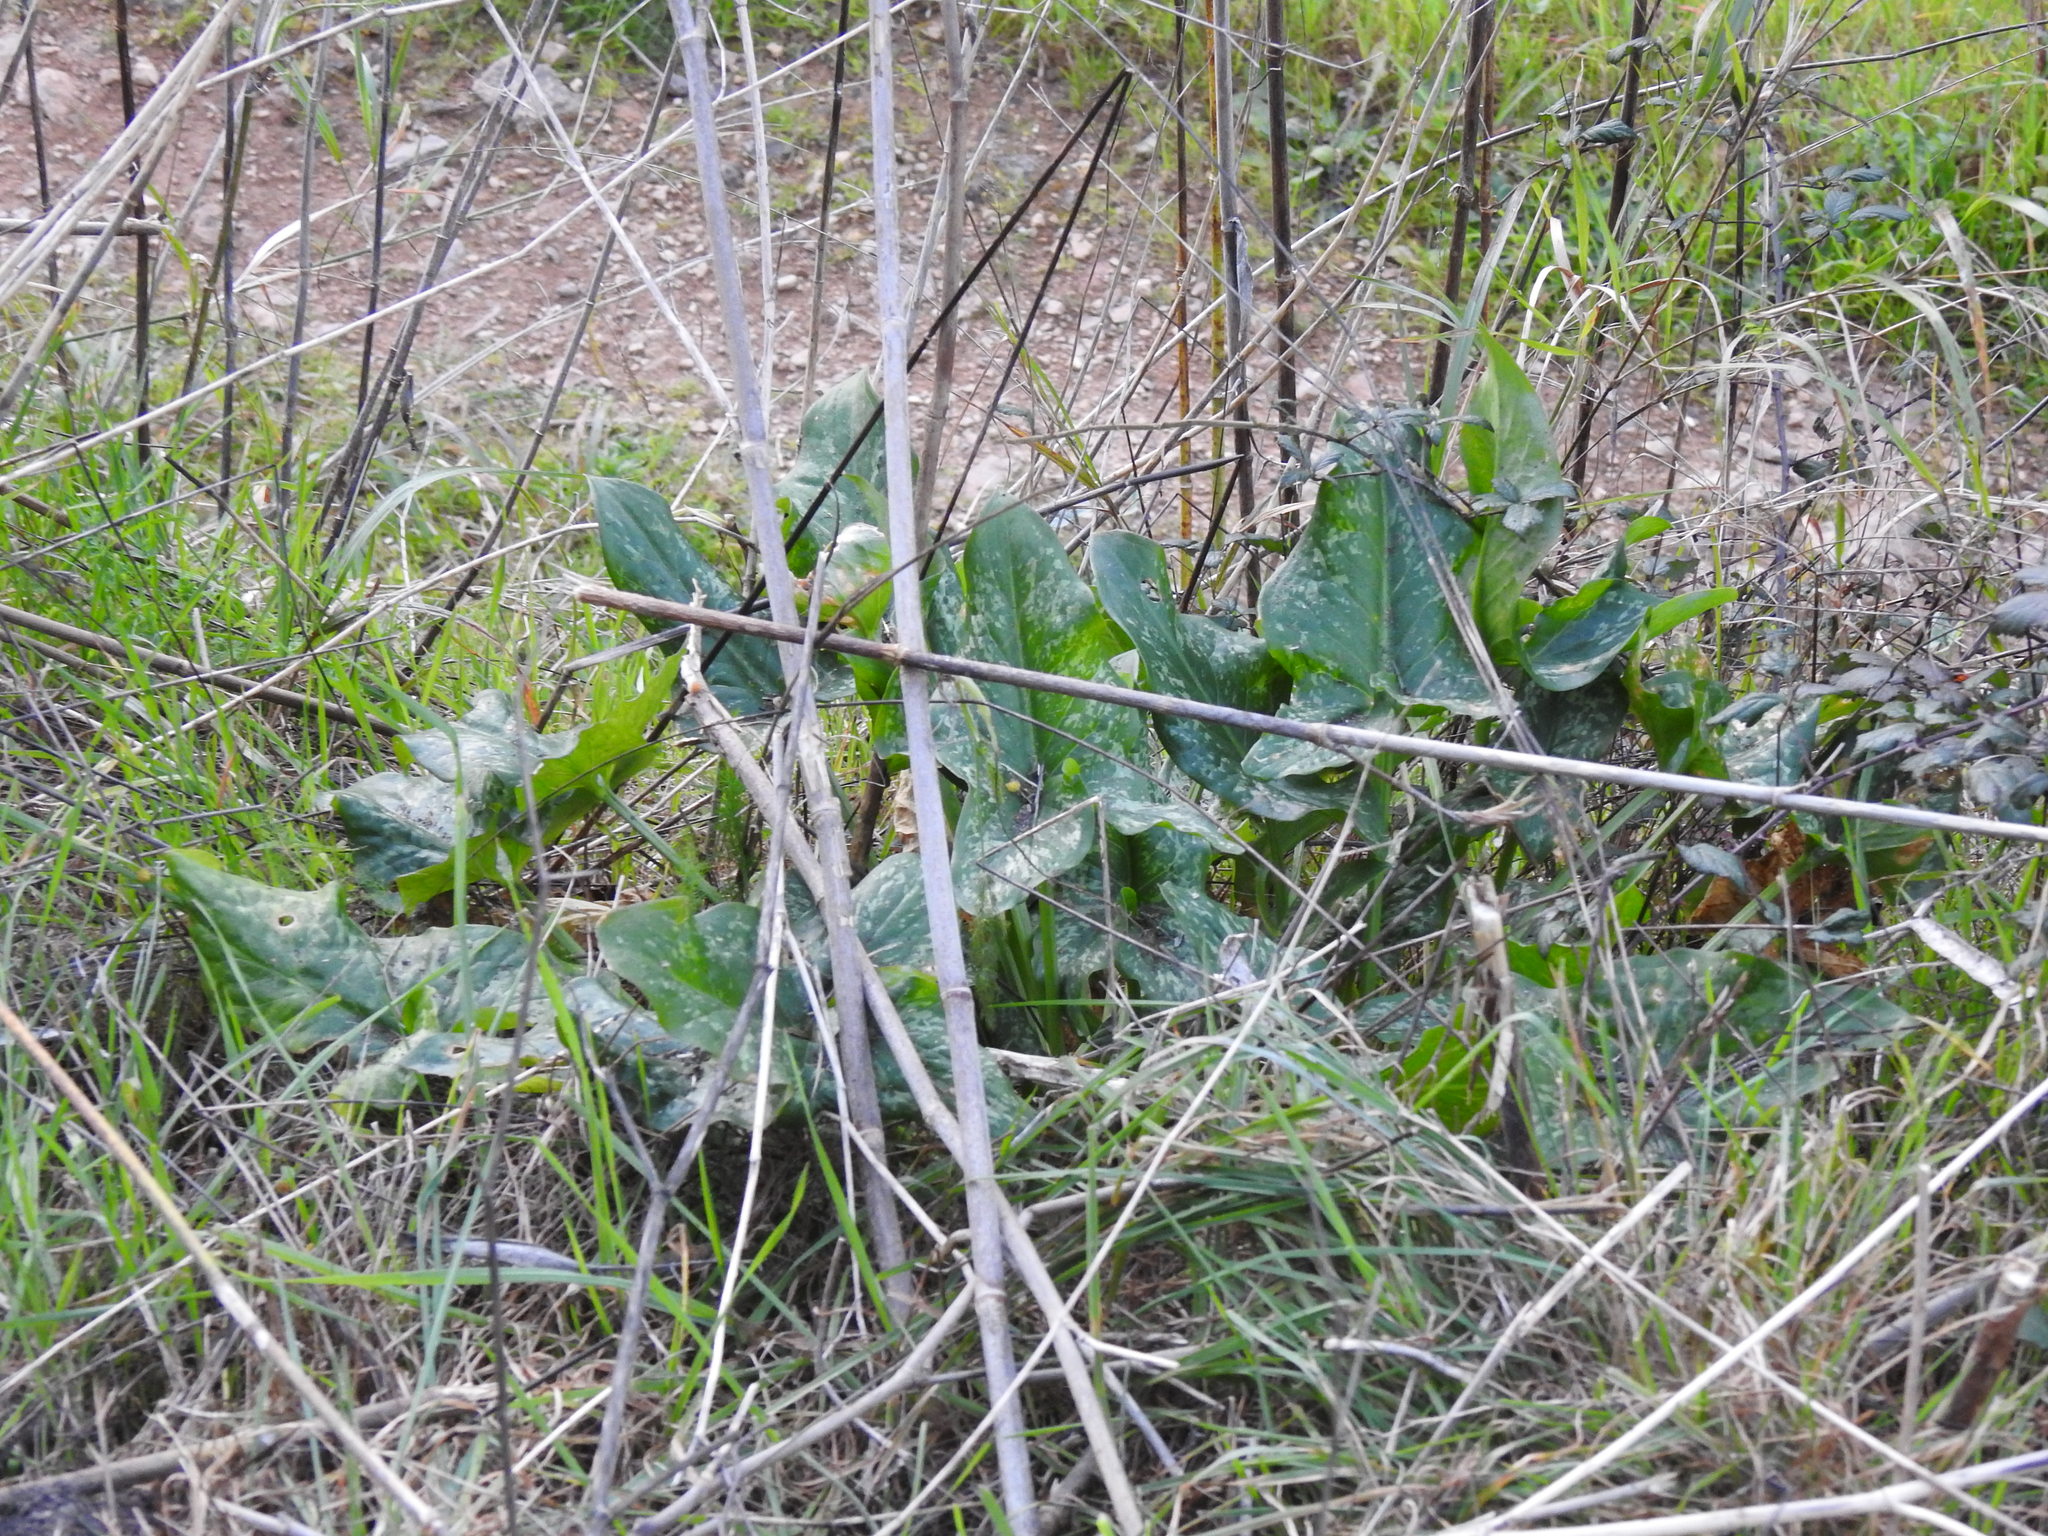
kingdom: Plantae
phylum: Tracheophyta
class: Liliopsida
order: Alismatales
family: Araceae
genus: Arum
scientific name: Arum italicum
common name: Italian lords-and-ladies
